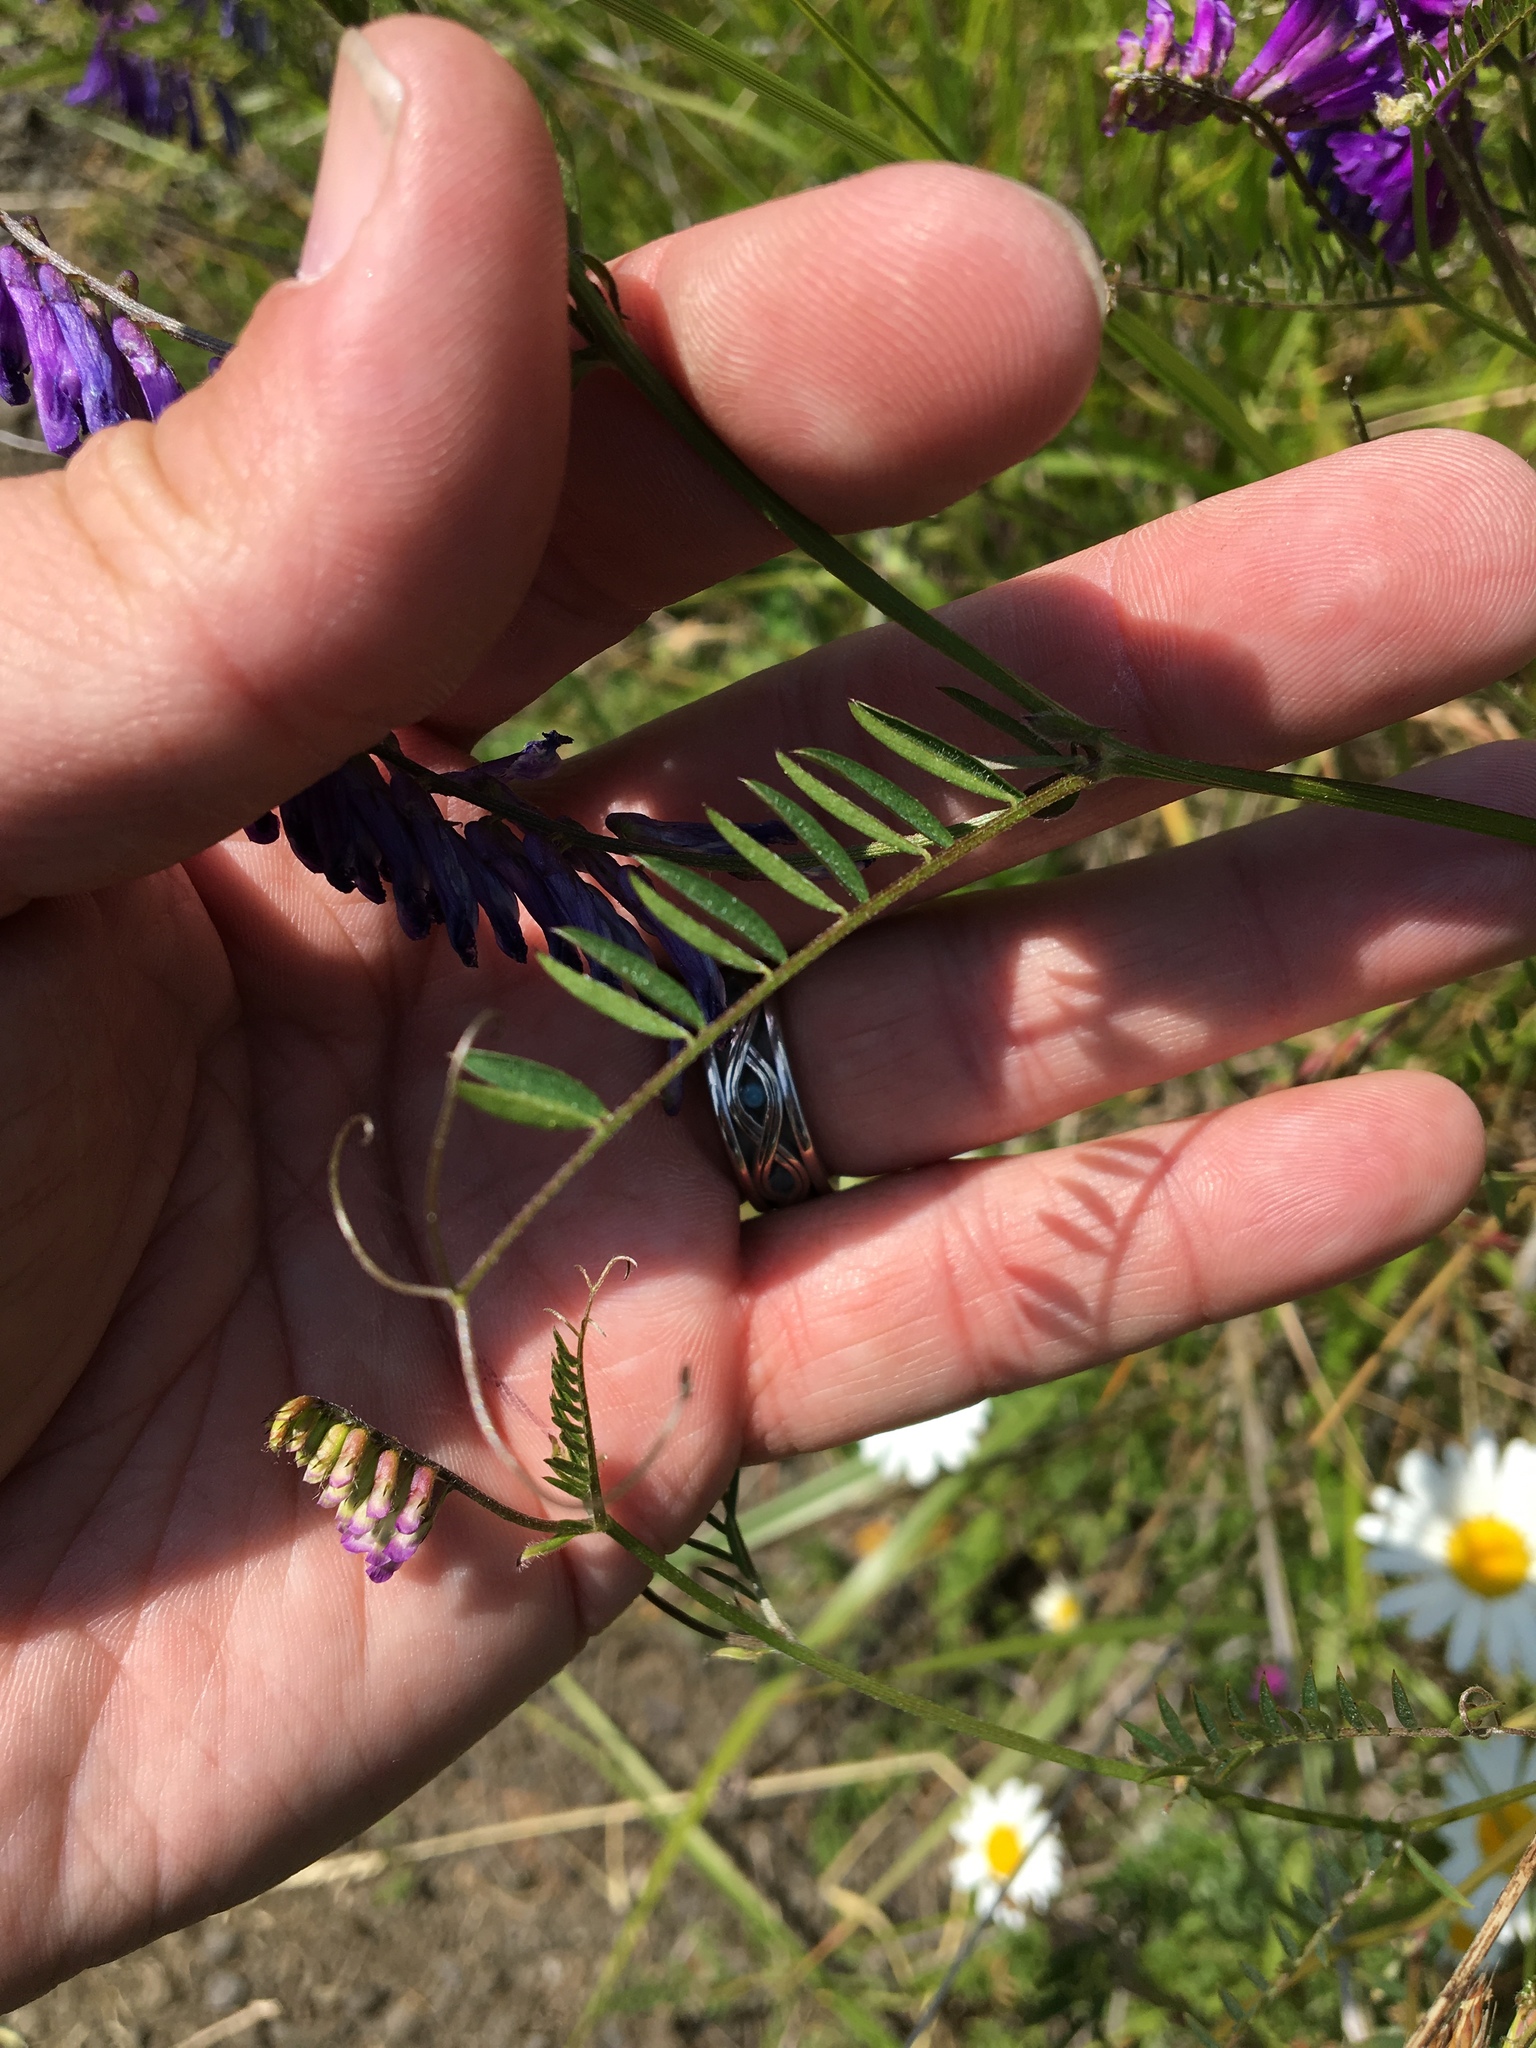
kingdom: Plantae
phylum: Tracheophyta
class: Magnoliopsida
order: Fabales
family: Fabaceae
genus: Vicia
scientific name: Vicia villosa
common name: Fodder vetch
